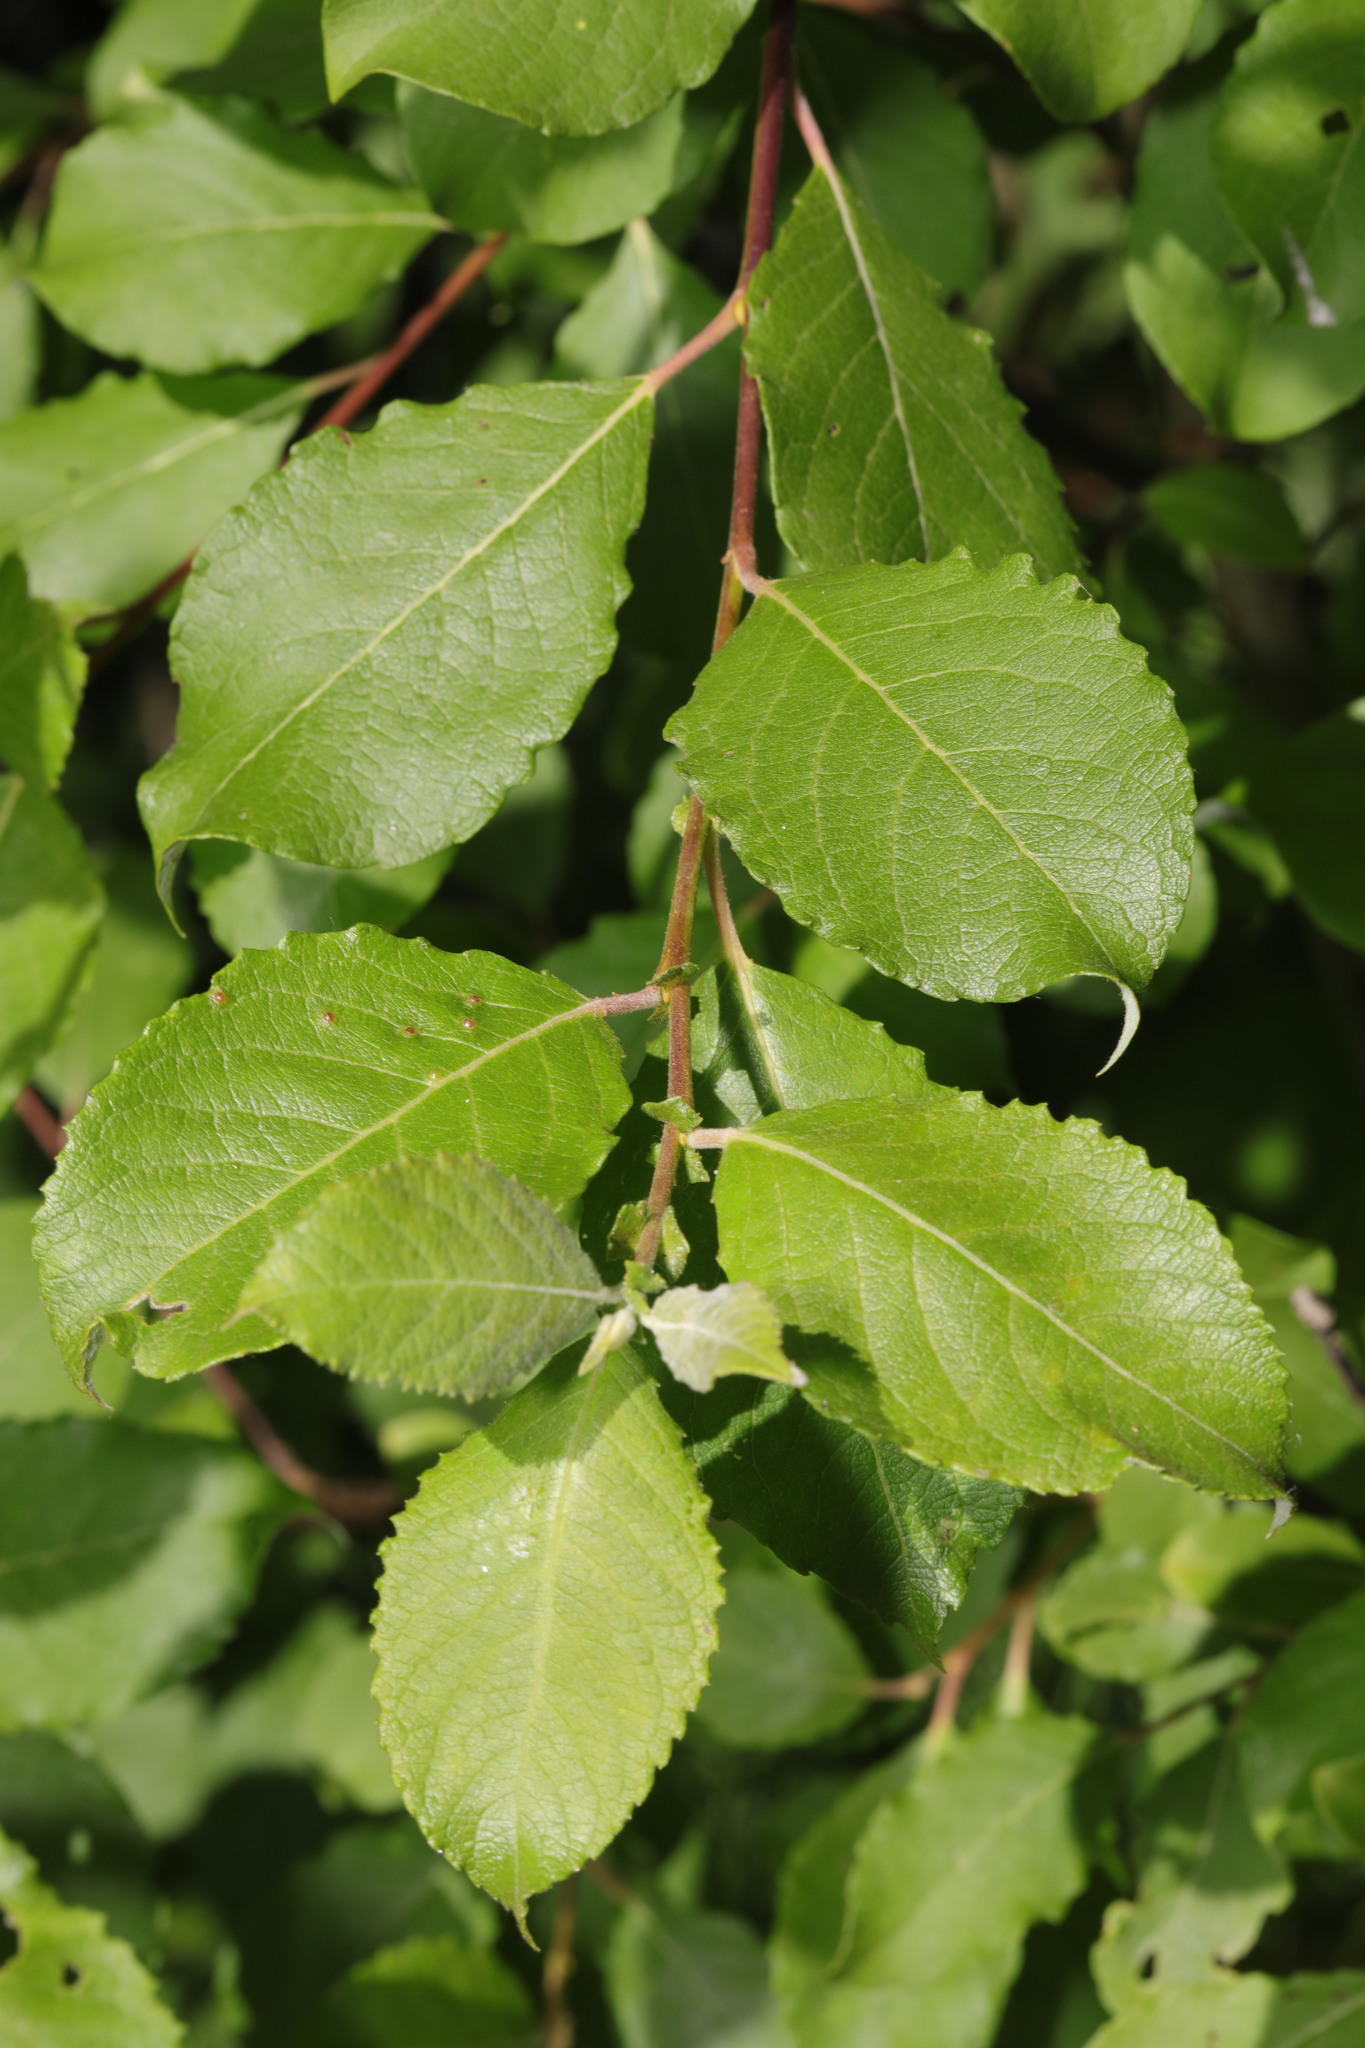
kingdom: Plantae
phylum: Tracheophyta
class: Magnoliopsida
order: Malpighiales
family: Salicaceae
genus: Salix
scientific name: Salix caprea
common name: Goat willow
